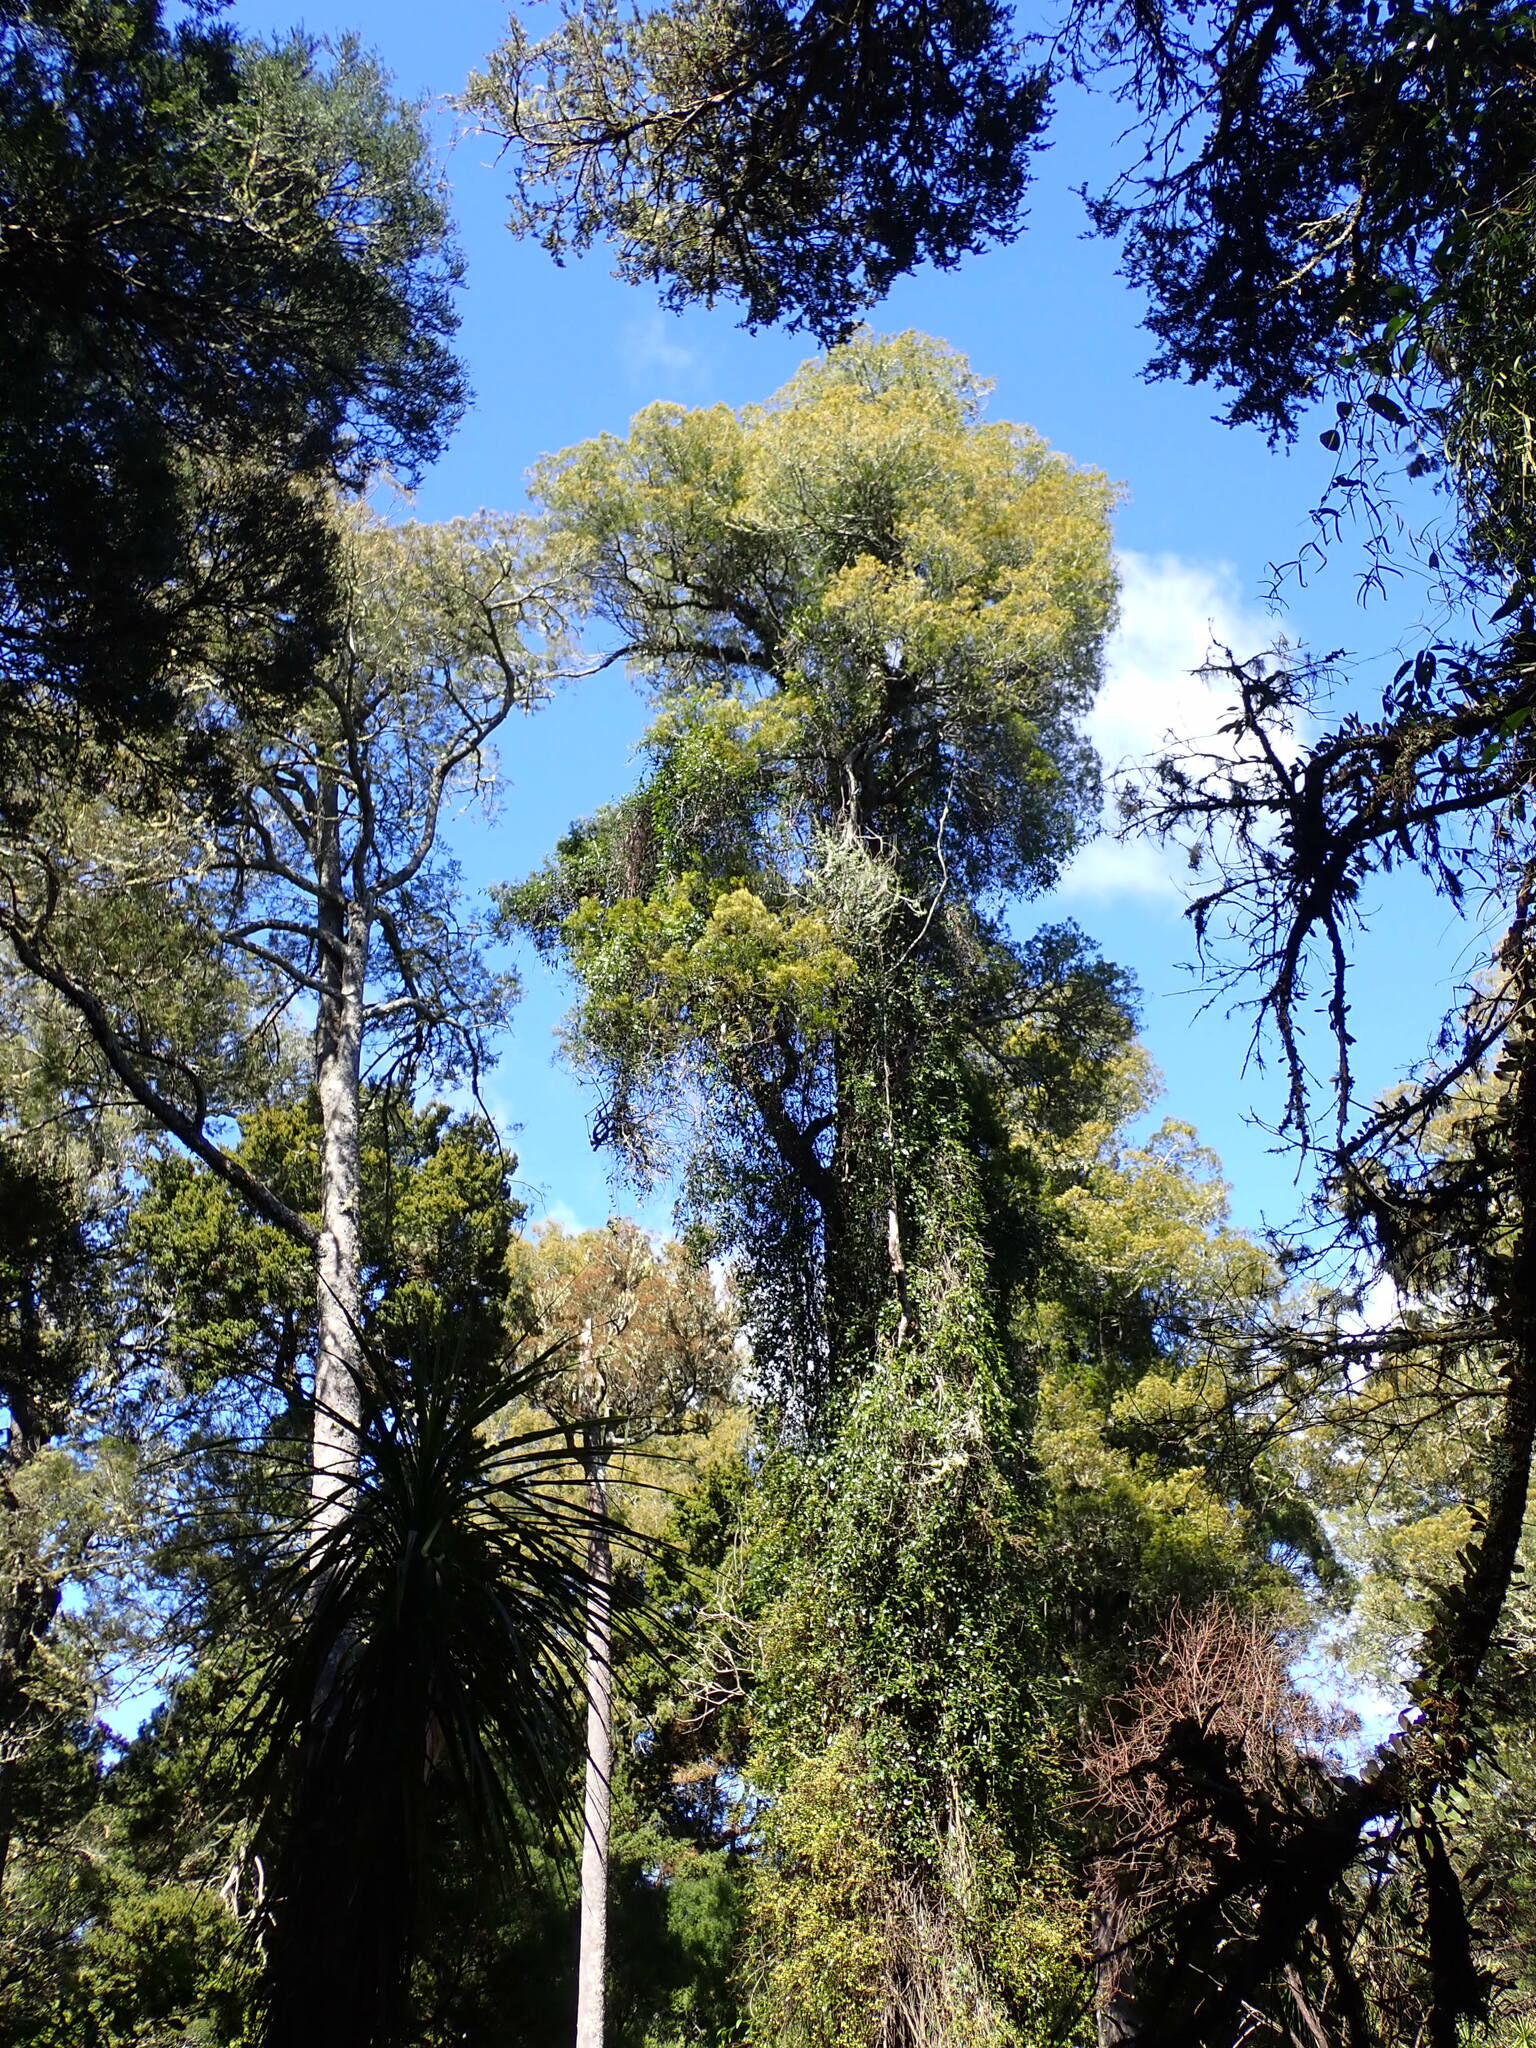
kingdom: Plantae
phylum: Tracheophyta
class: Pinopsida
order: Pinales
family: Podocarpaceae
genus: Dacrycarpus
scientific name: Dacrycarpus dacrydioides
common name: White pine
